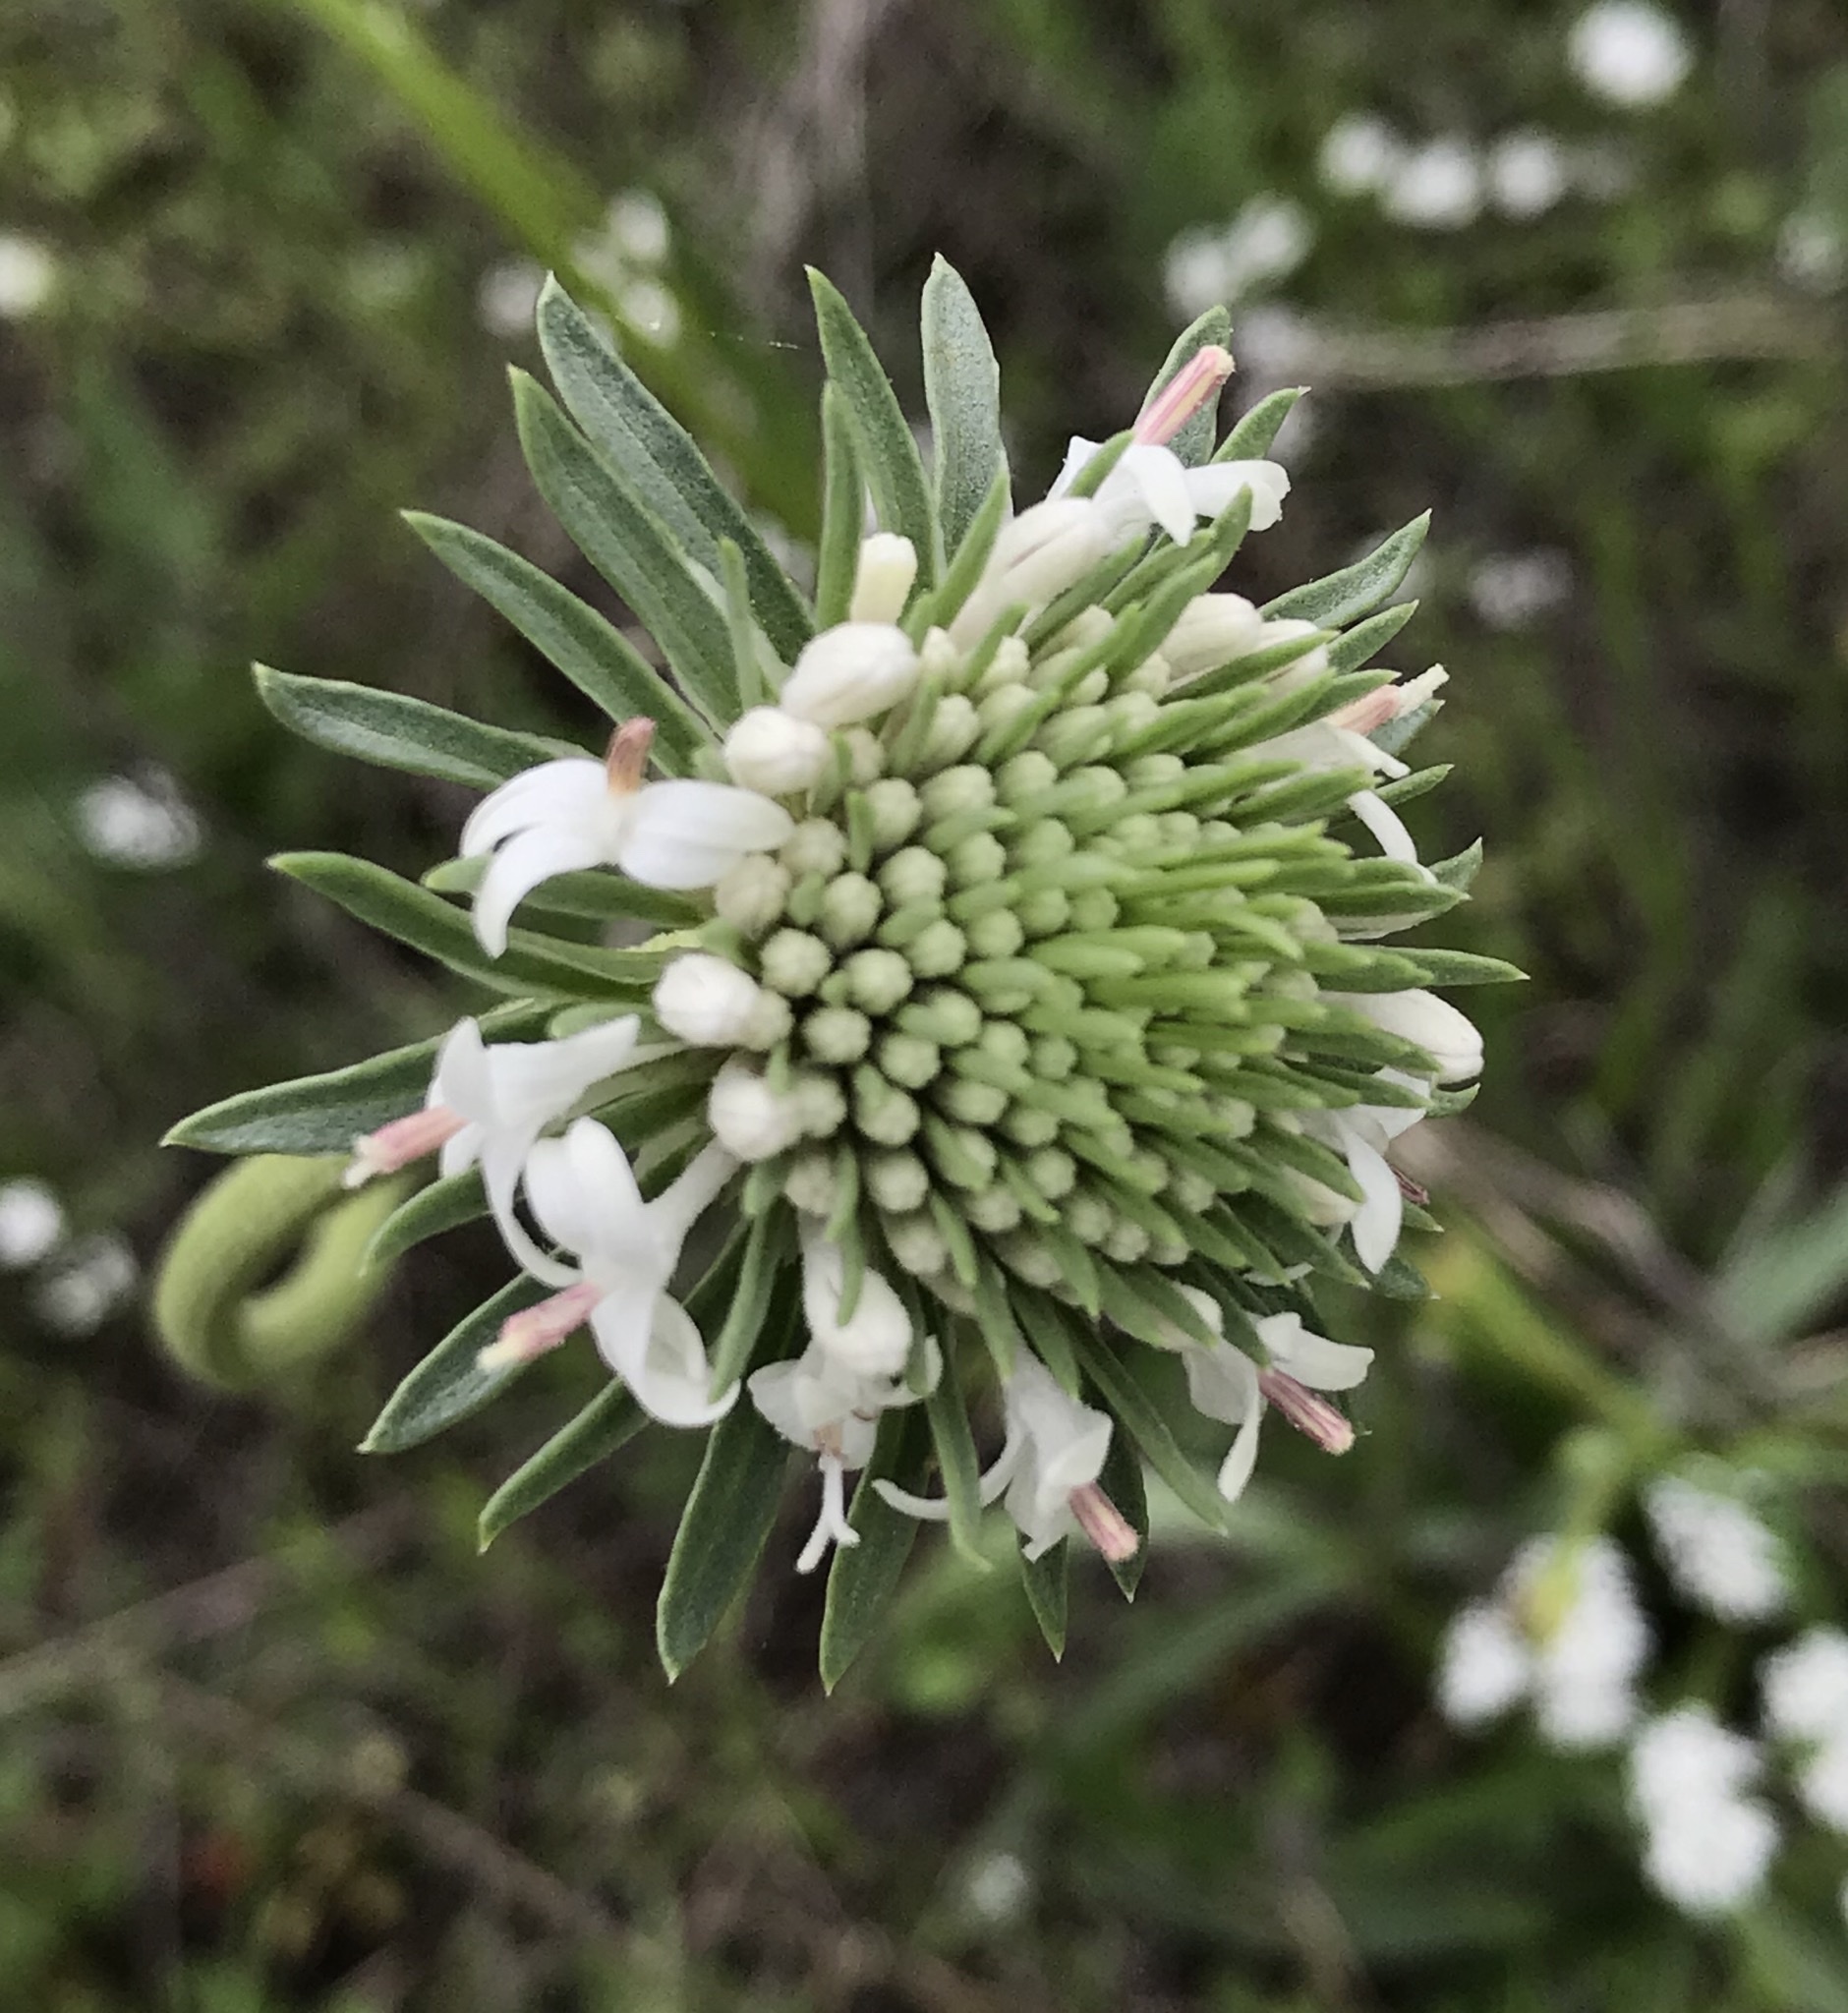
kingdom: Plantae
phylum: Tracheophyta
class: Magnoliopsida
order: Asterales
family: Asteraceae
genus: Marshallia
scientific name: Marshallia caespitosa
